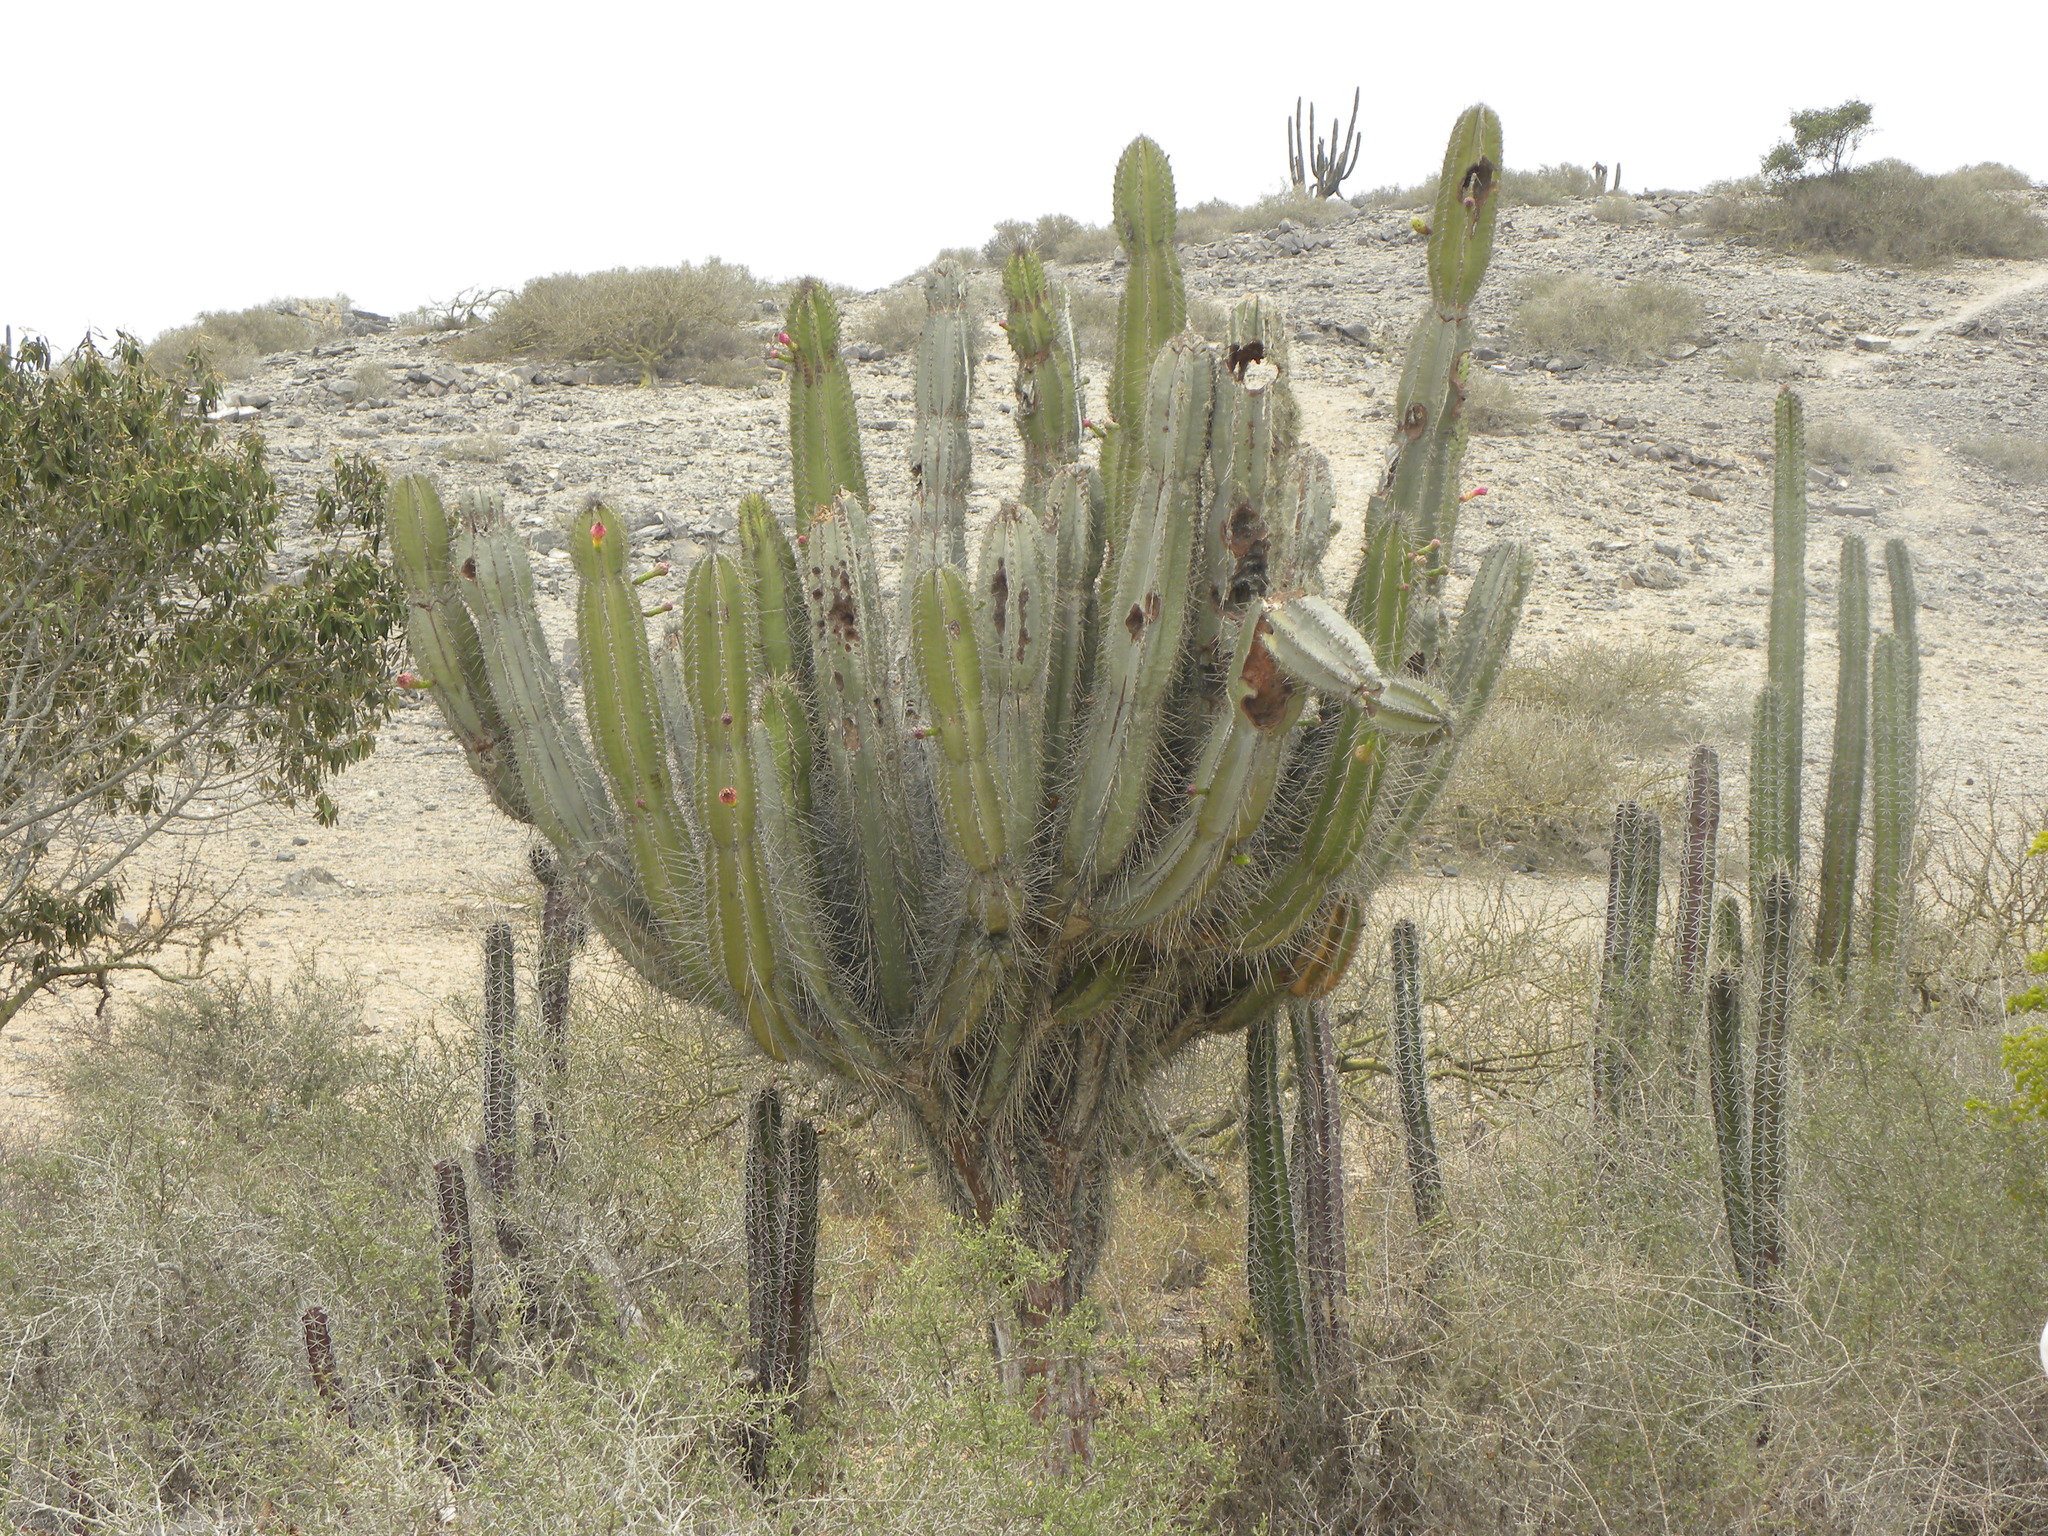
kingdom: Plantae
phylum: Tracheophyta
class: Magnoliopsida
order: Caryophyllales
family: Cactaceae
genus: Cereus
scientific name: Cereus repandus
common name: Sweetpotato cactus
